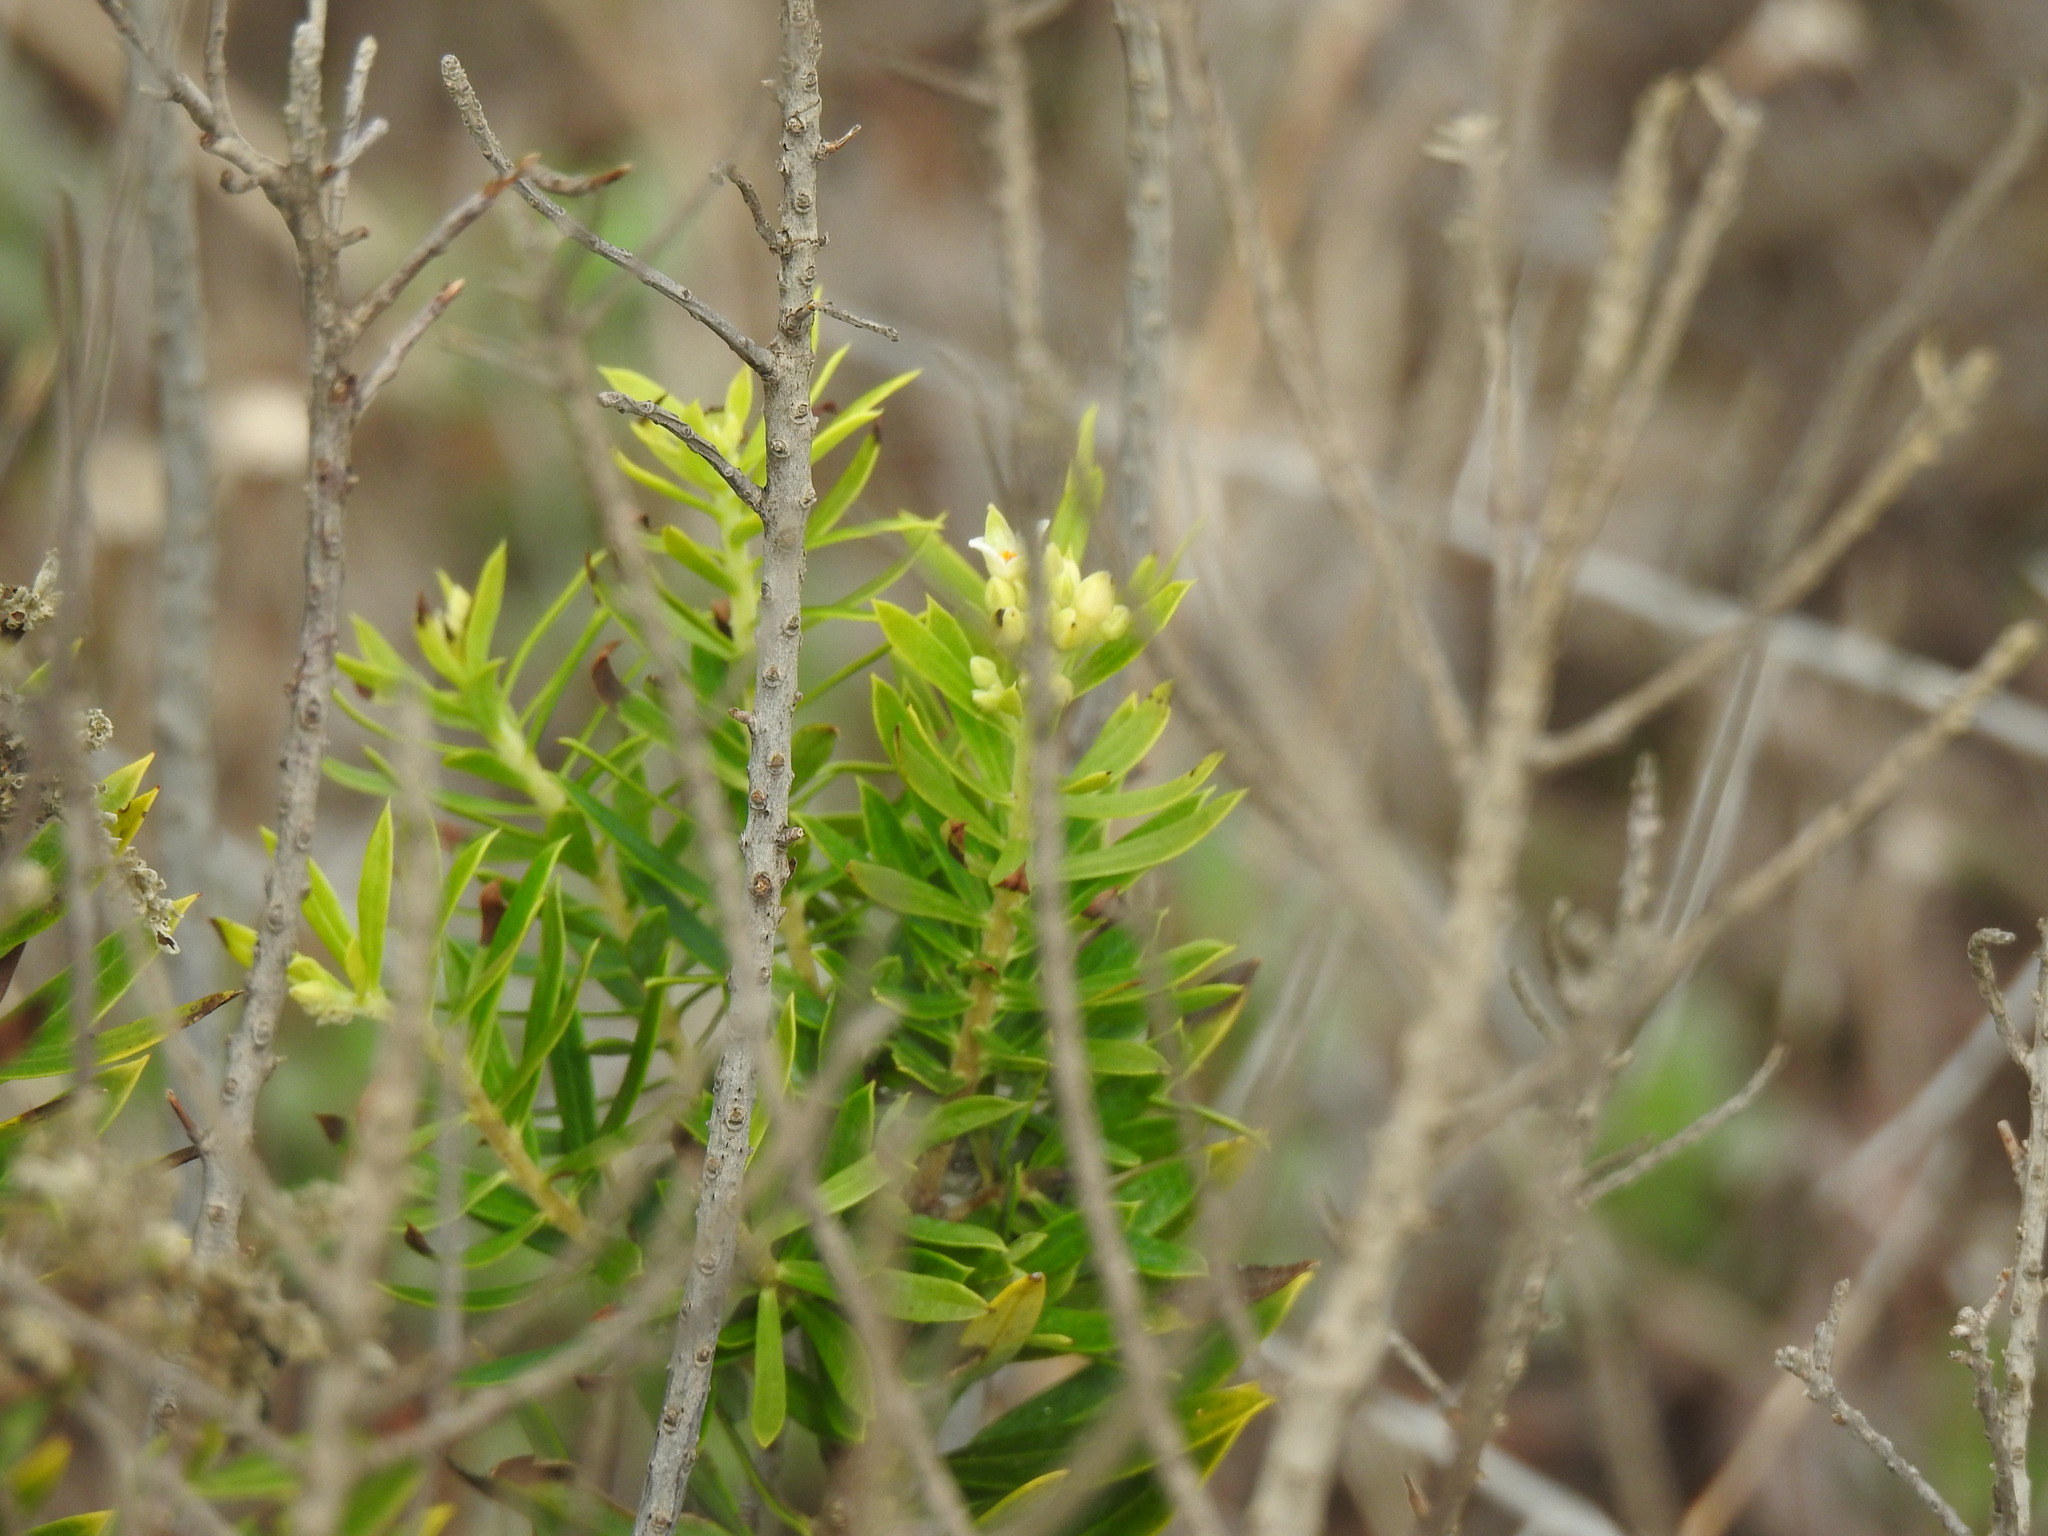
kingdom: Plantae
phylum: Tracheophyta
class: Magnoliopsida
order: Malvales
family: Thymelaeaceae
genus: Daphne
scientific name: Daphne gnidium
